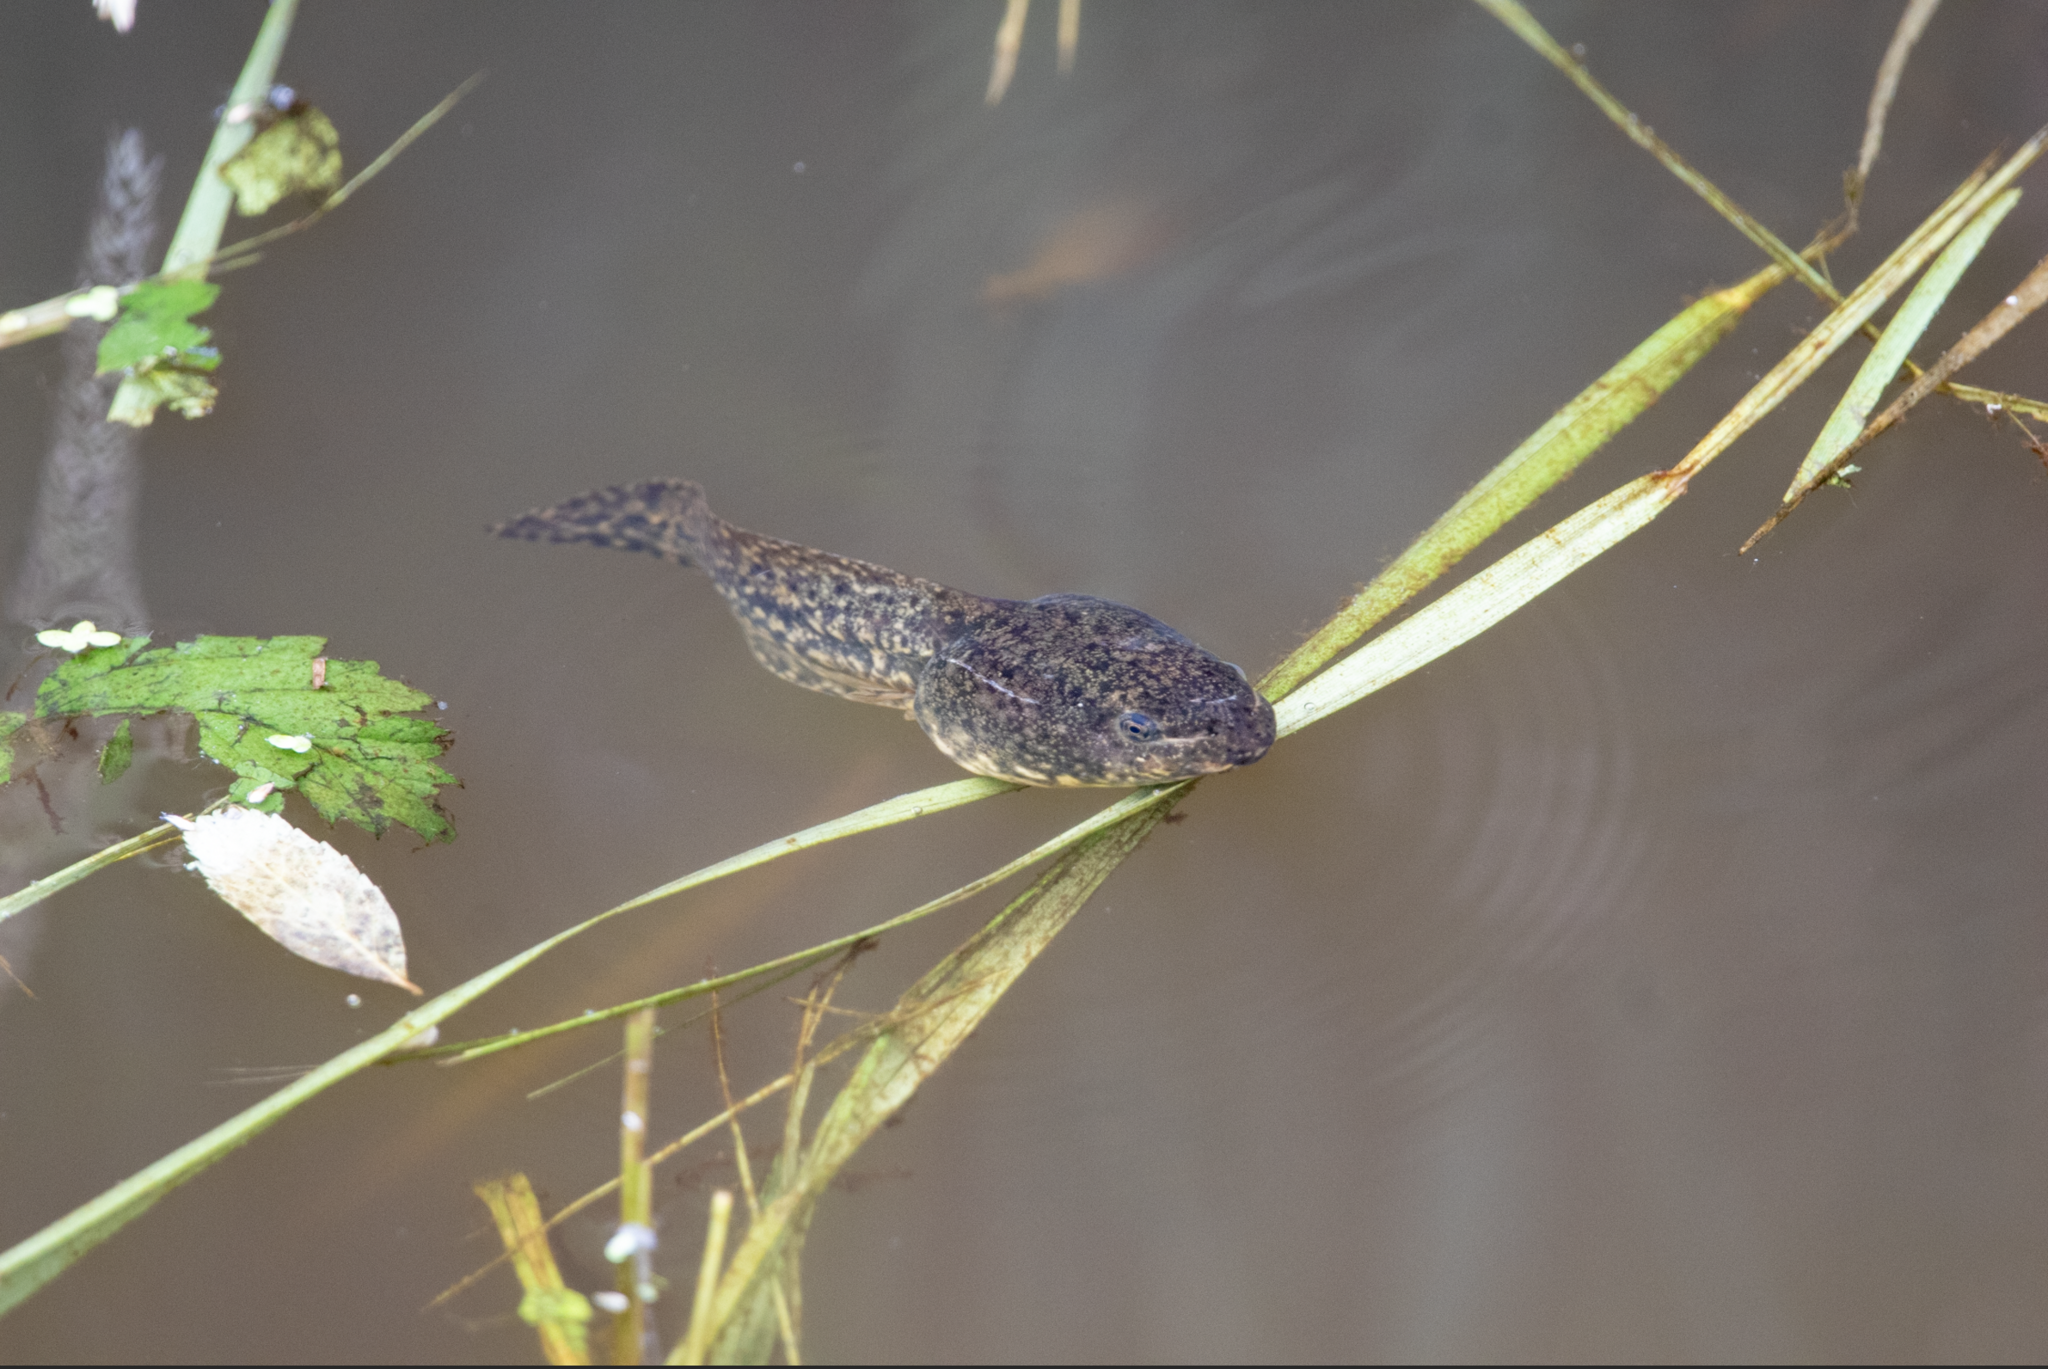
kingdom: Animalia
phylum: Chordata
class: Amphibia
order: Anura
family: Ranidae
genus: Lithobates
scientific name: Lithobates catesbeianus
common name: American bullfrog
